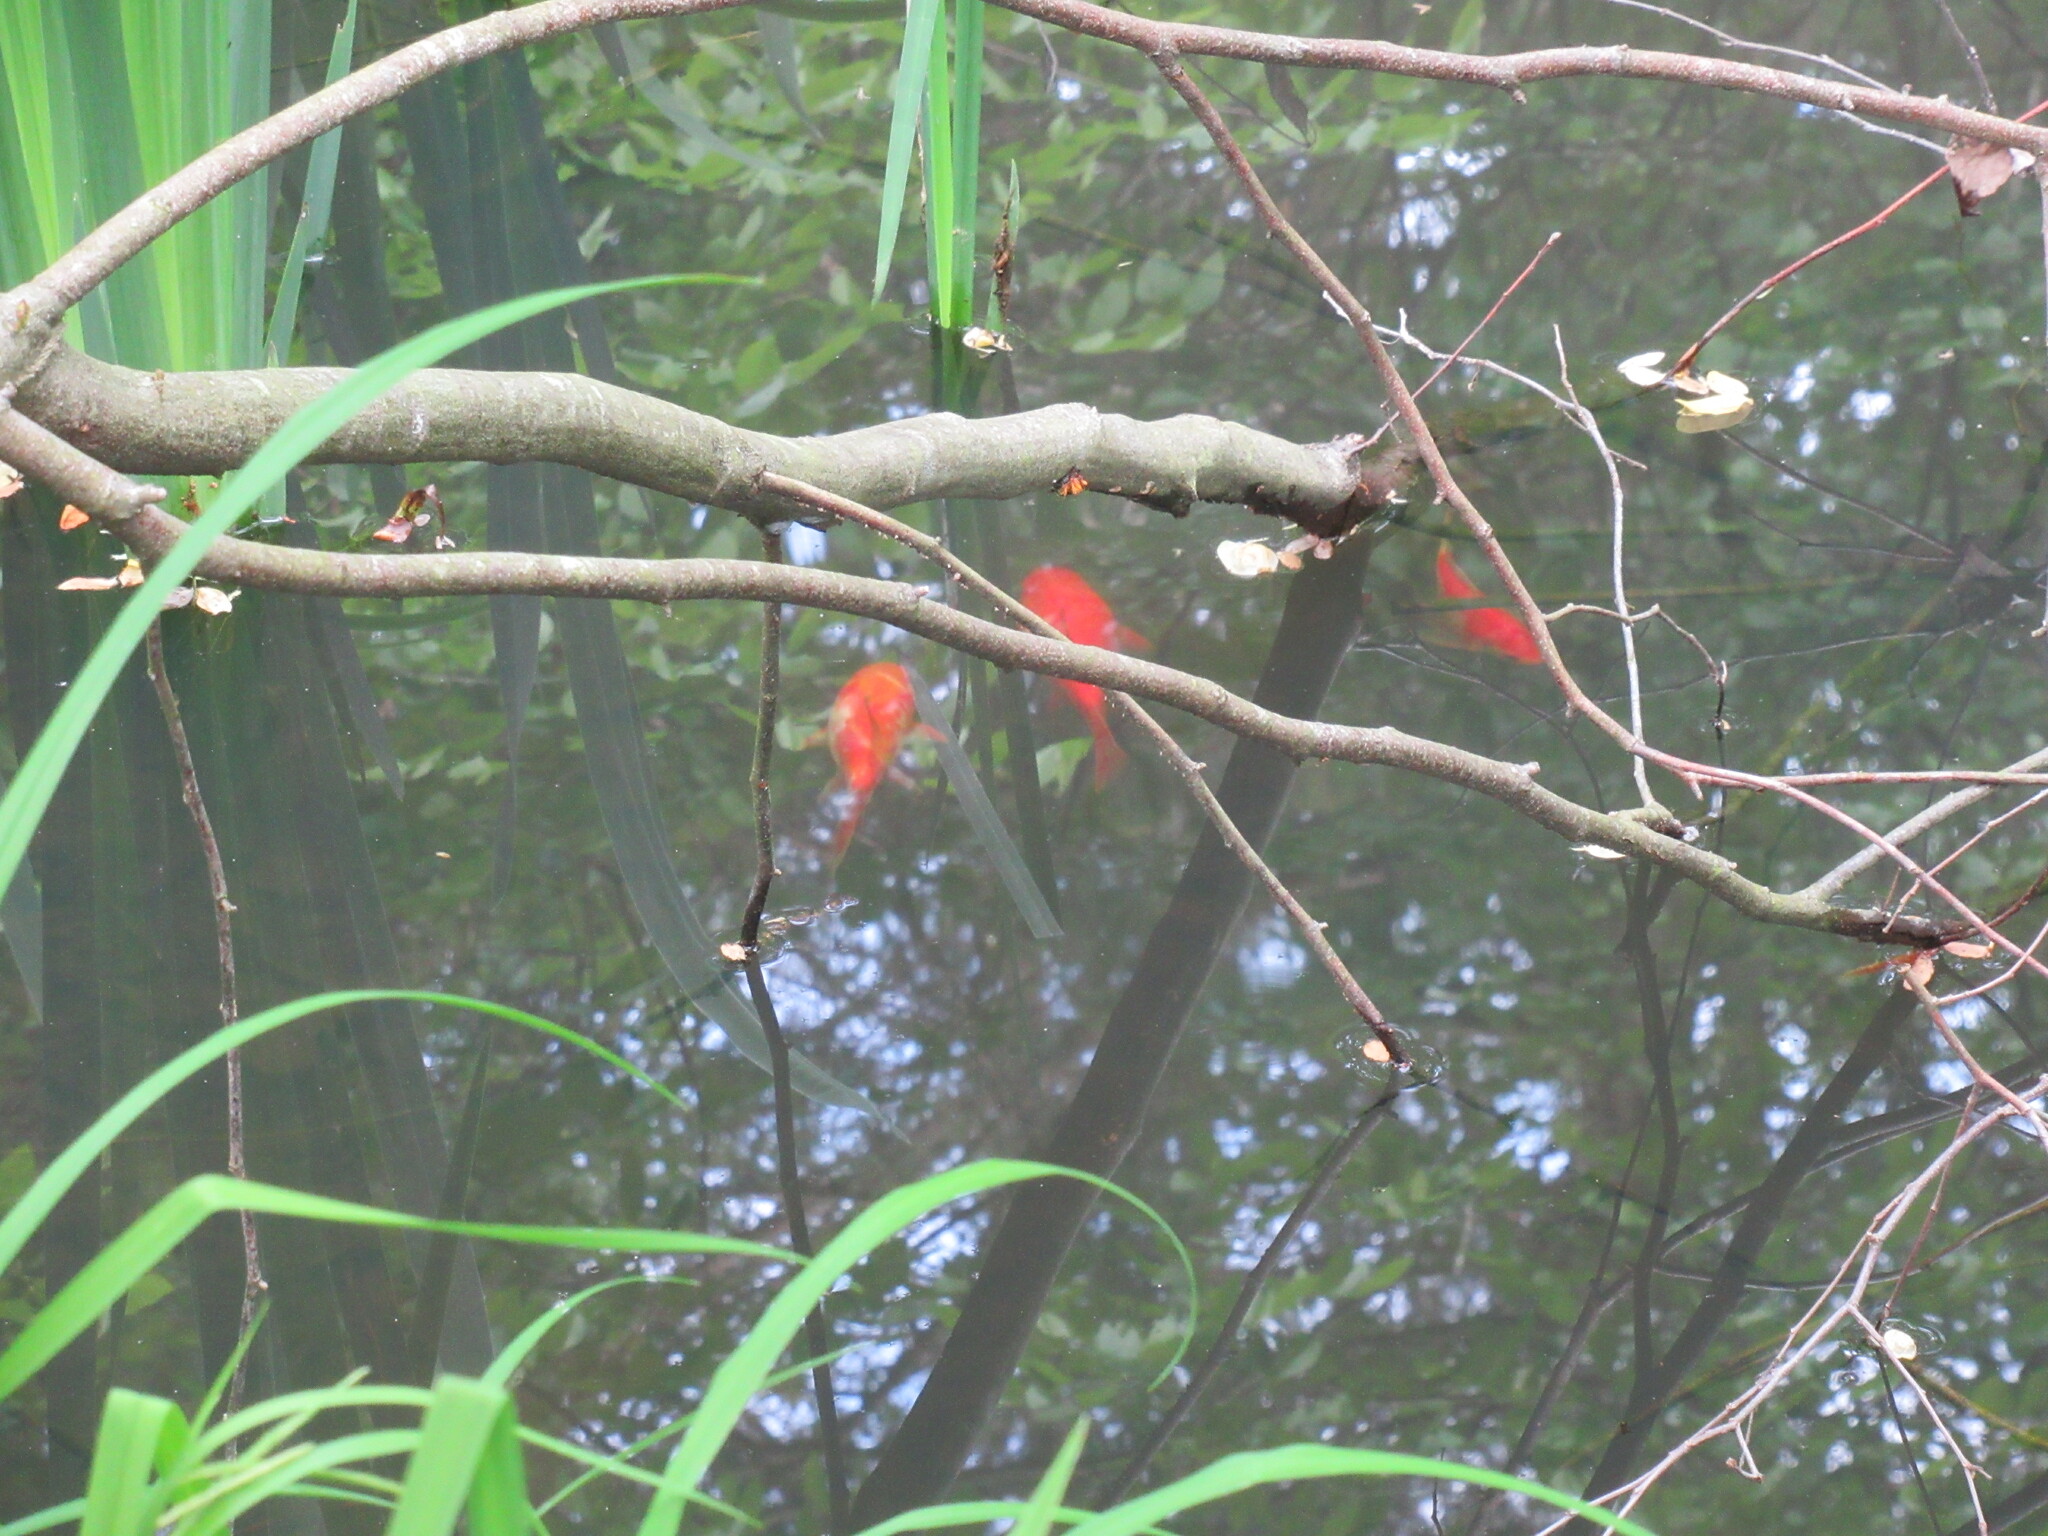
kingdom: Animalia
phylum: Chordata
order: Cypriniformes
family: Cyprinidae
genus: Carassius
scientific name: Carassius auratus
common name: Goldfish
